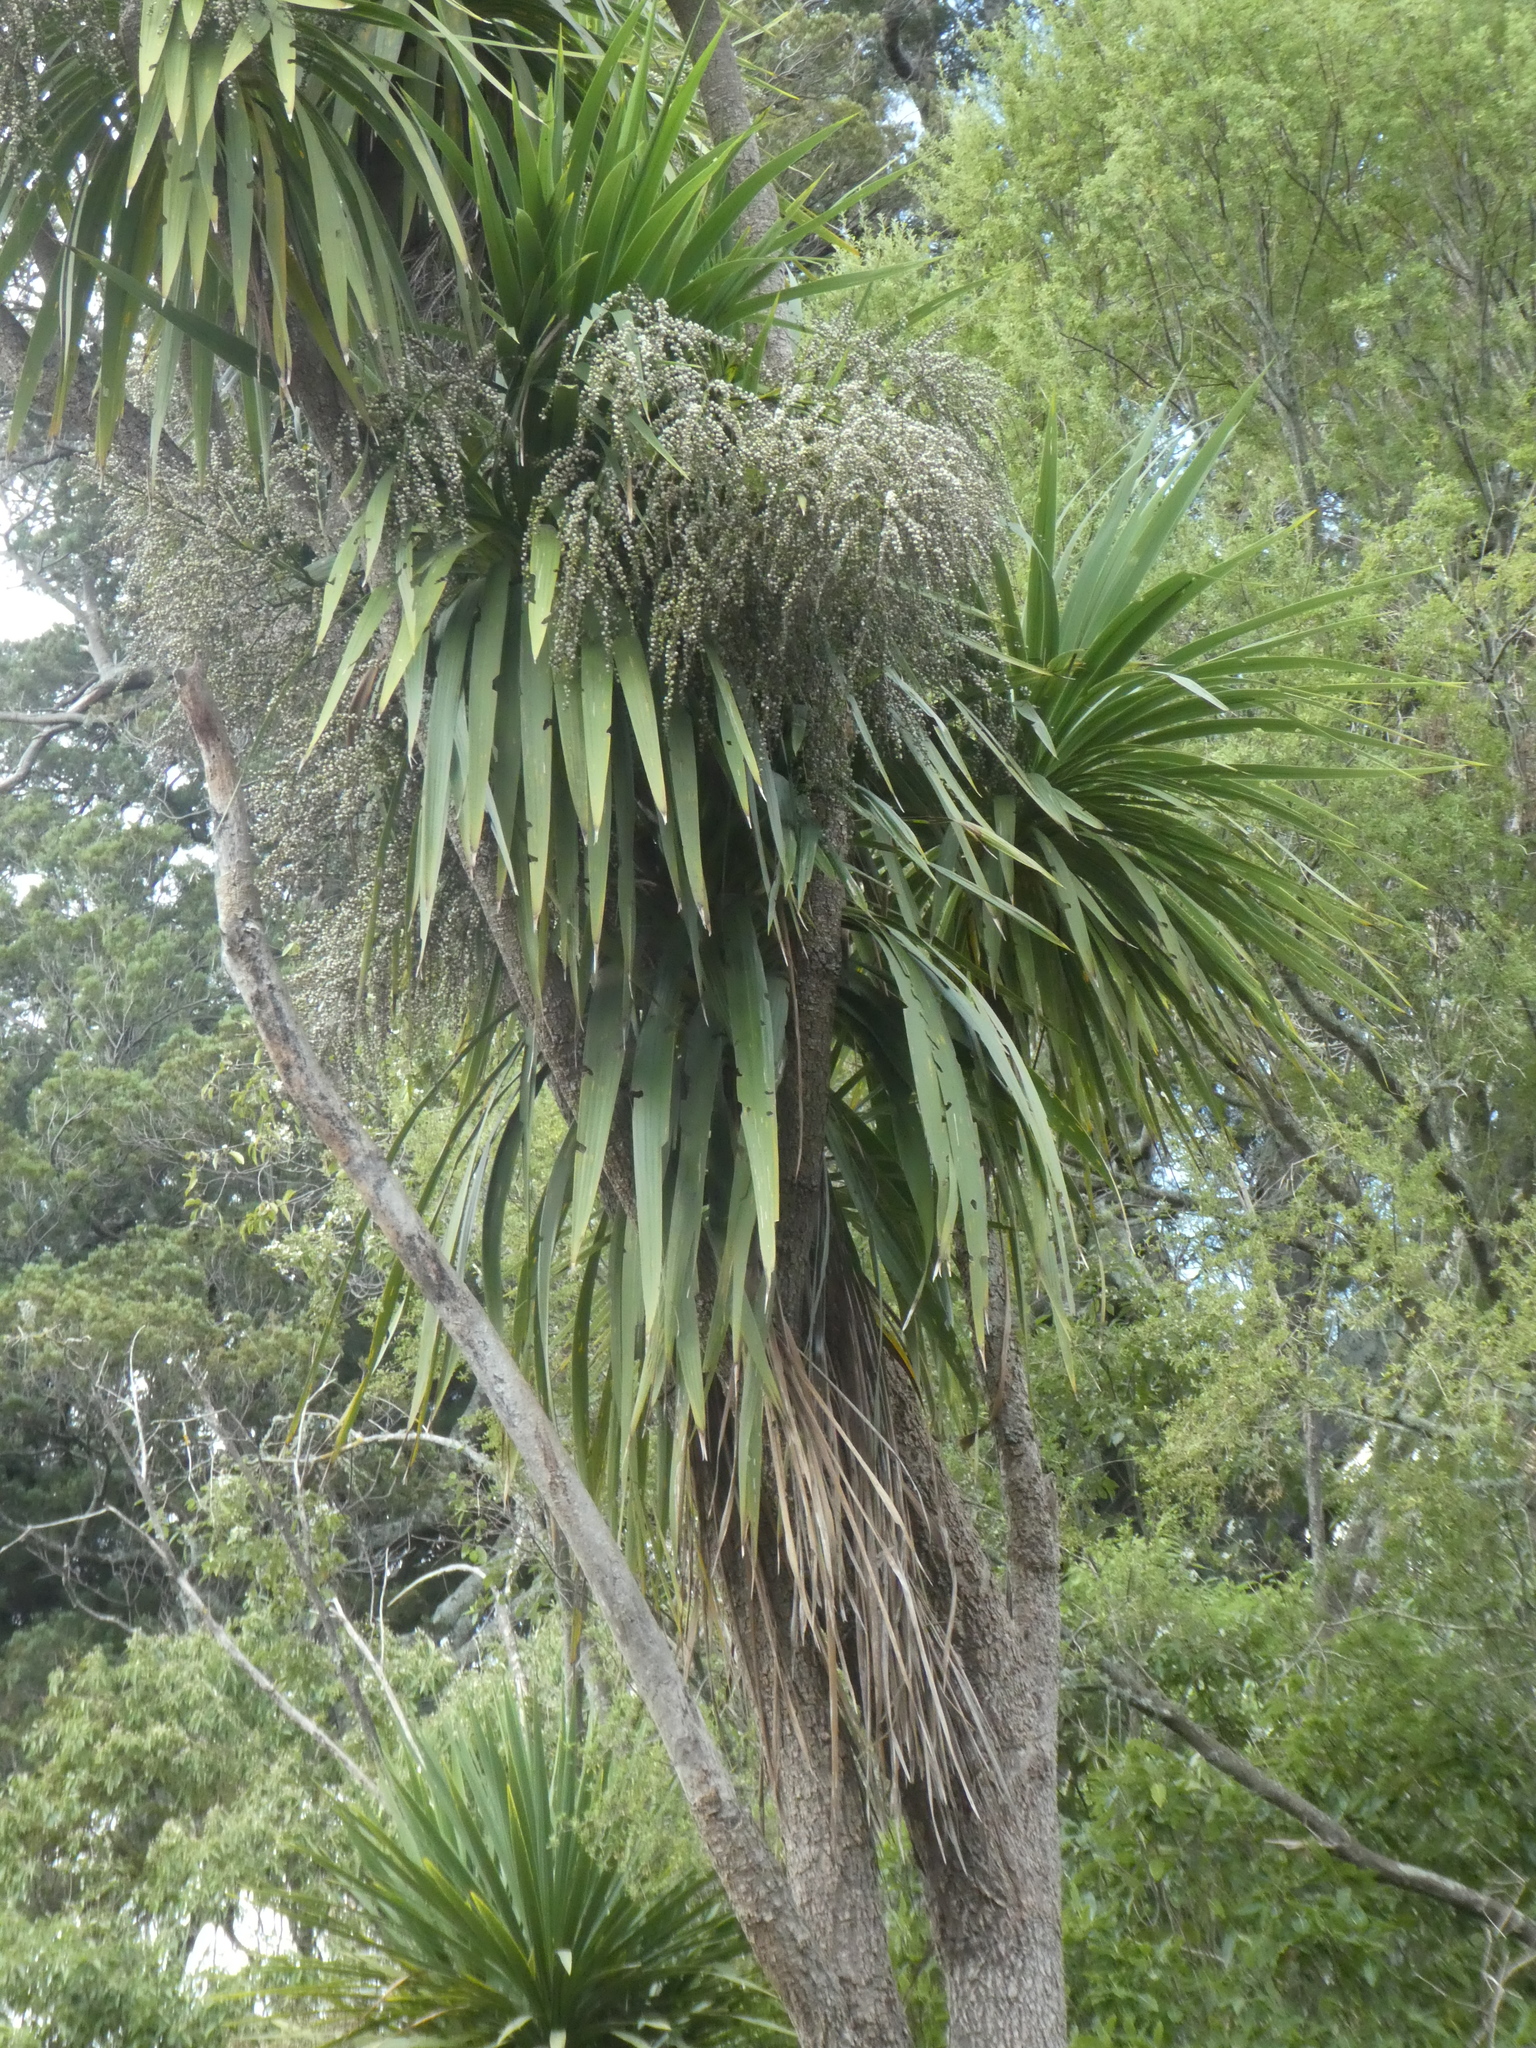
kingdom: Plantae
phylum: Tracheophyta
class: Liliopsida
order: Asparagales
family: Asparagaceae
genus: Cordyline
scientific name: Cordyline australis
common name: Cabbage-palm
